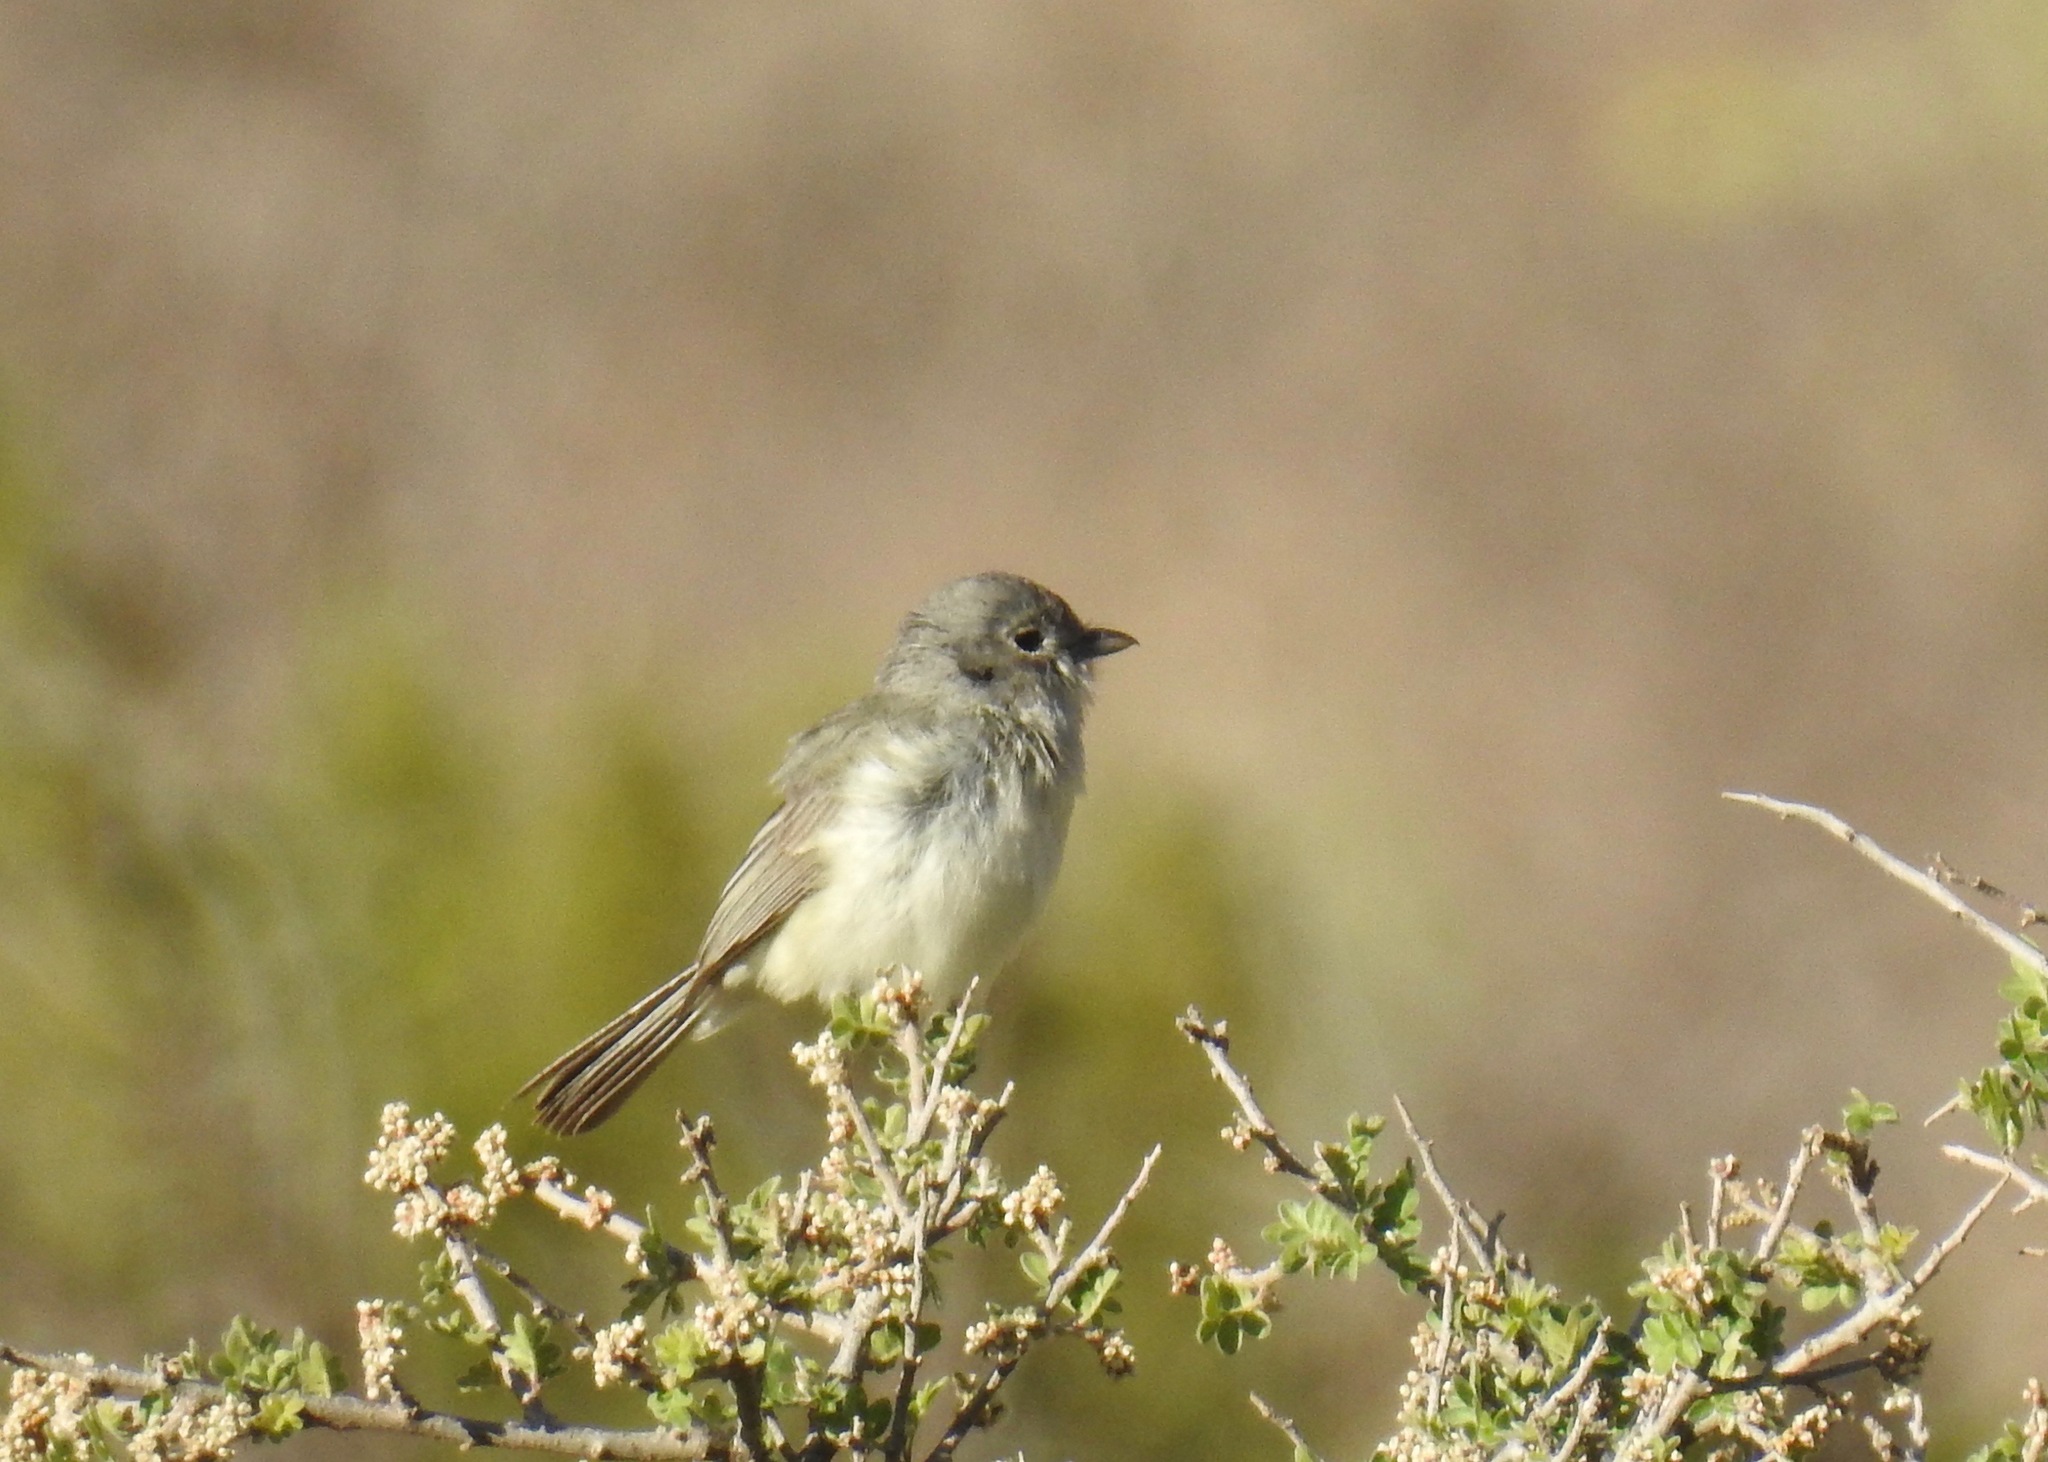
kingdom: Animalia
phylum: Chordata
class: Aves
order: Passeriformes
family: Vireonidae
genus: Vireo
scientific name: Vireo vicinior
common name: Gray vireo
